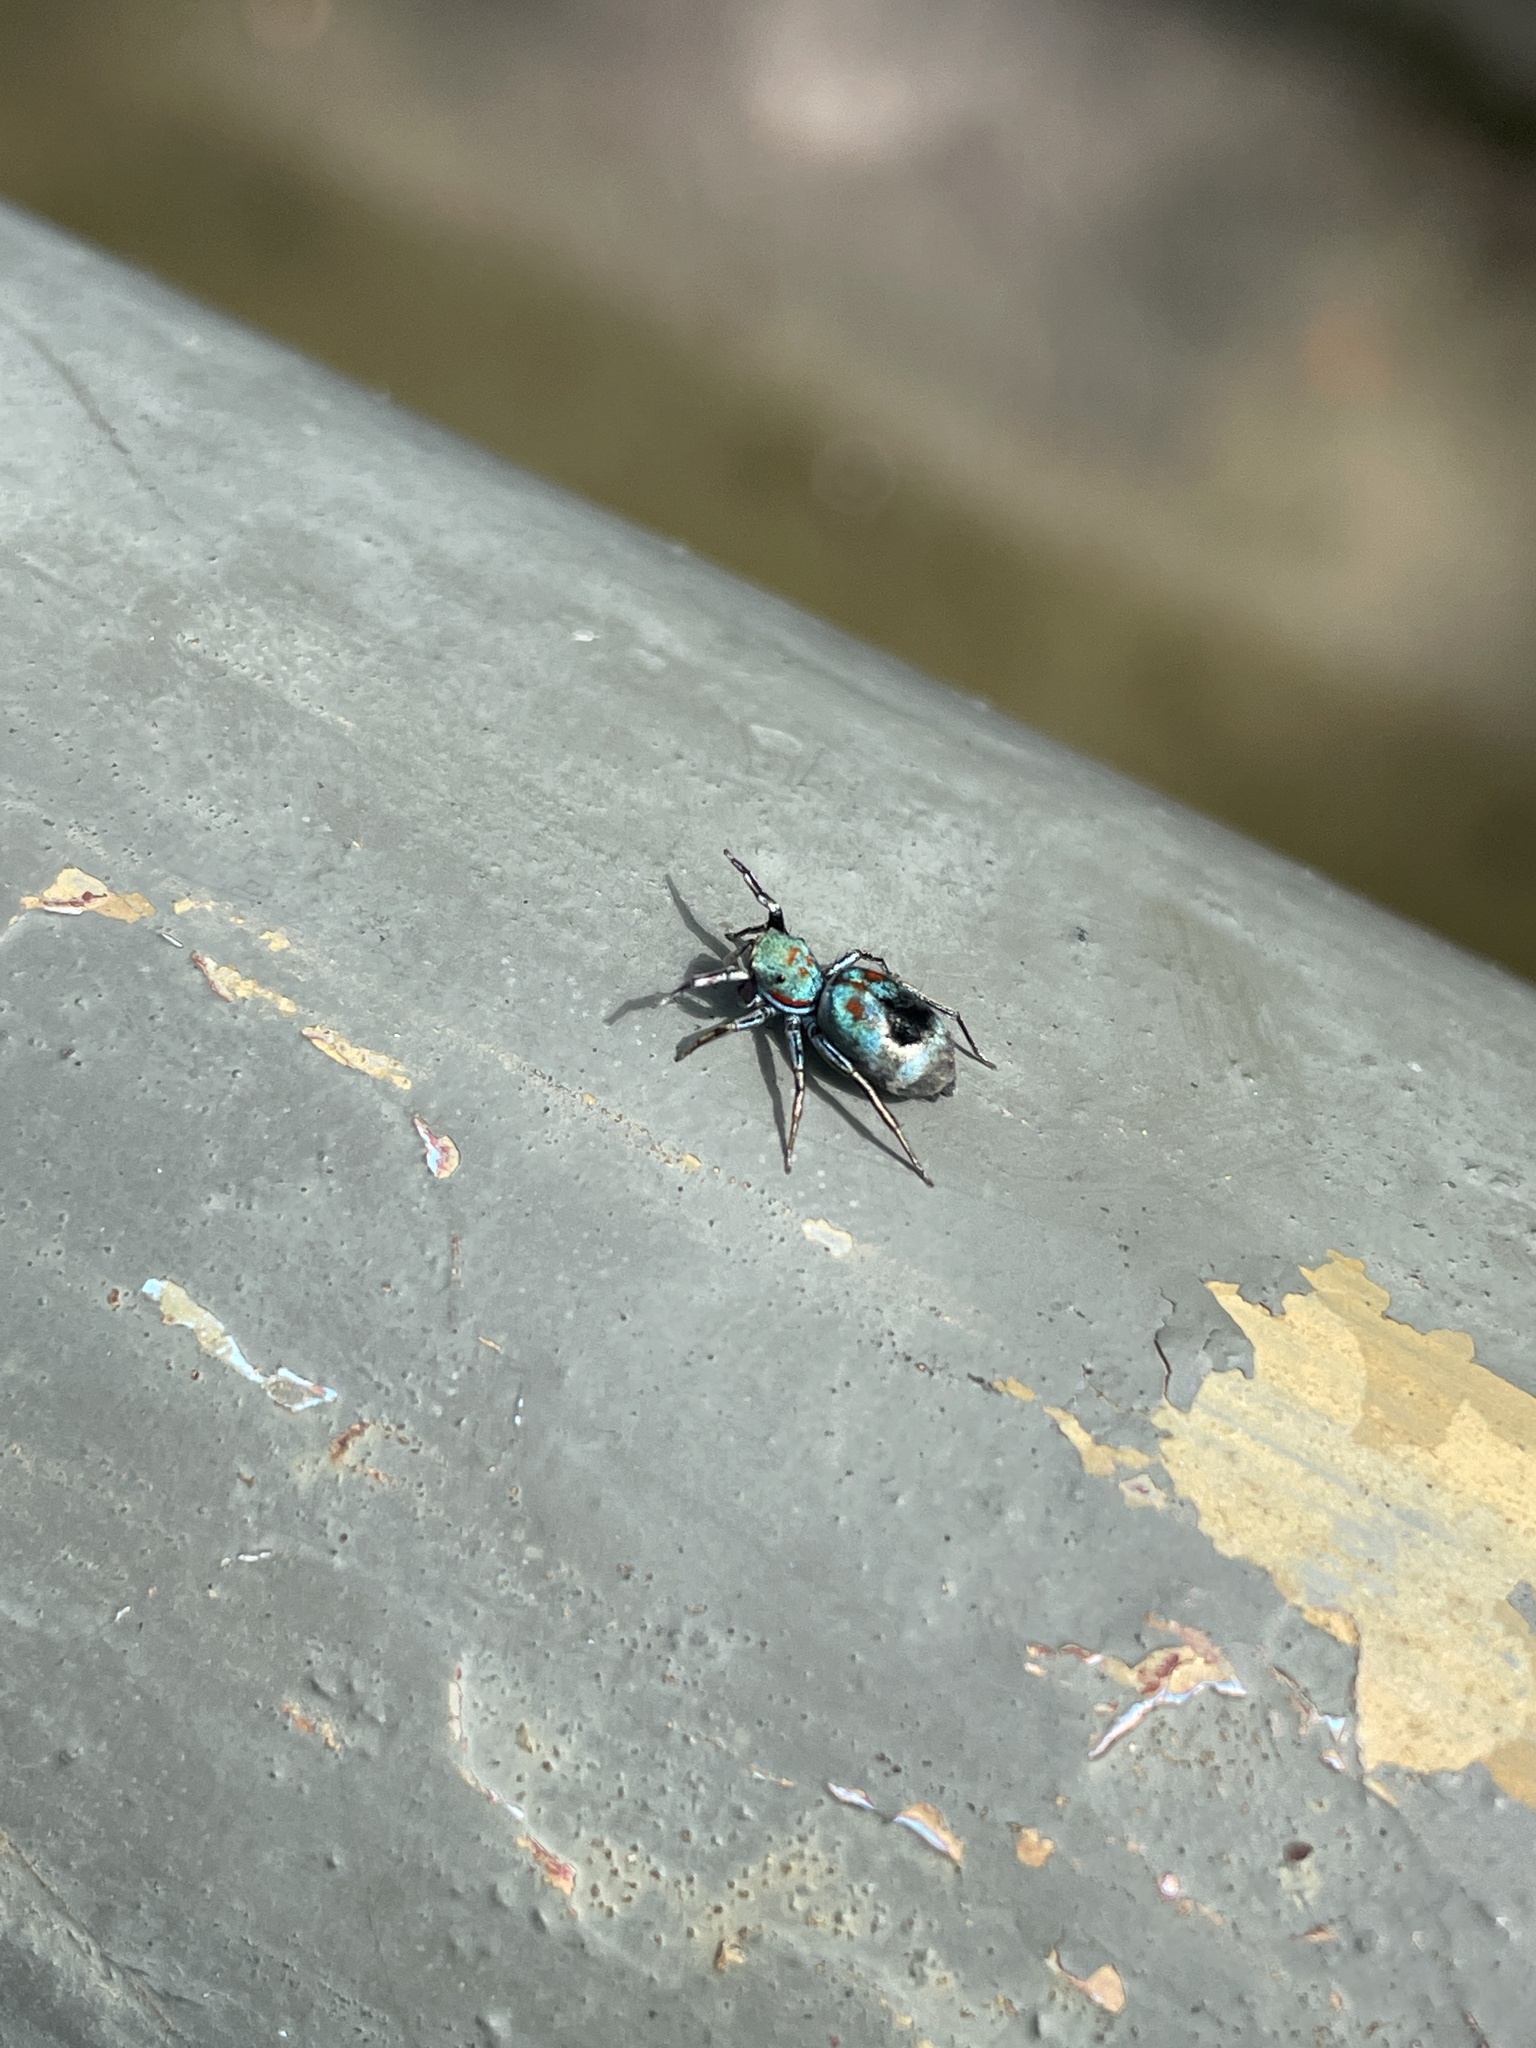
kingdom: Animalia
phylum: Arthropoda
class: Arachnida
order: Araneae
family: Salticidae
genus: Siler
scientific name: Siler collingwoodi
